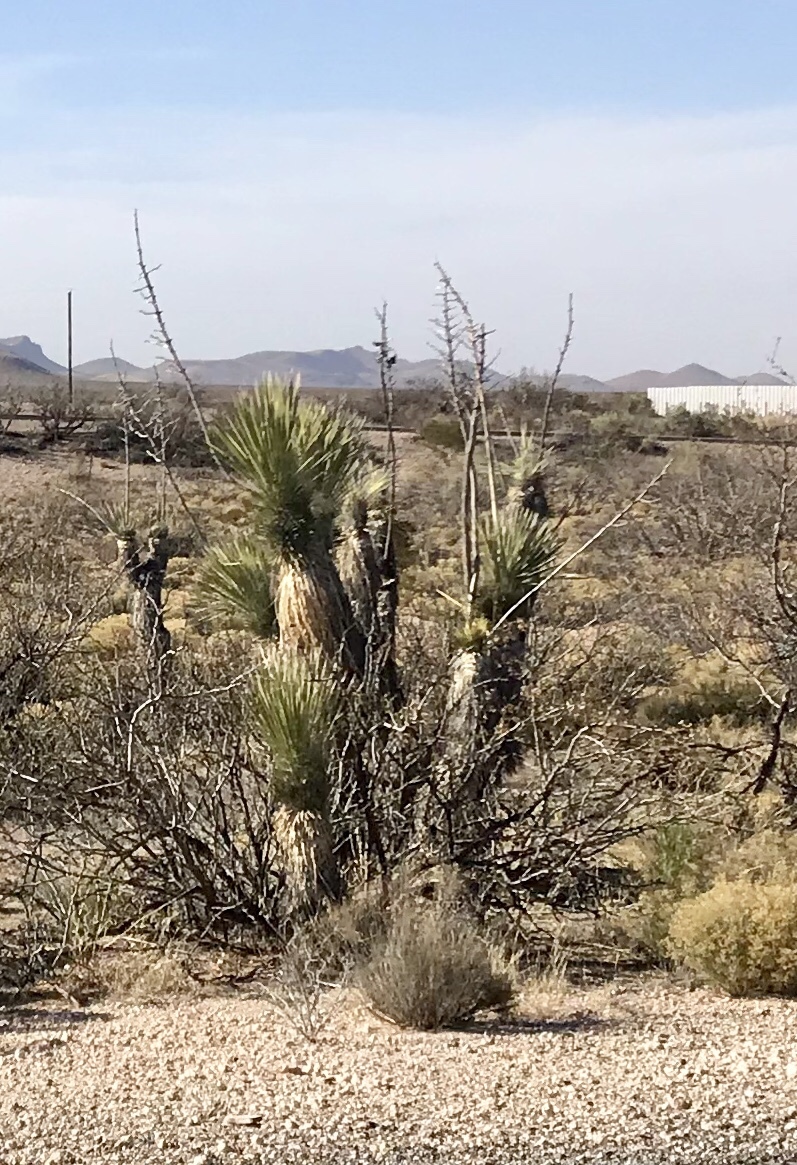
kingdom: Plantae
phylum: Tracheophyta
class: Liliopsida
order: Asparagales
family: Asparagaceae
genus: Yucca
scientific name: Yucca elata
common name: Palmella
